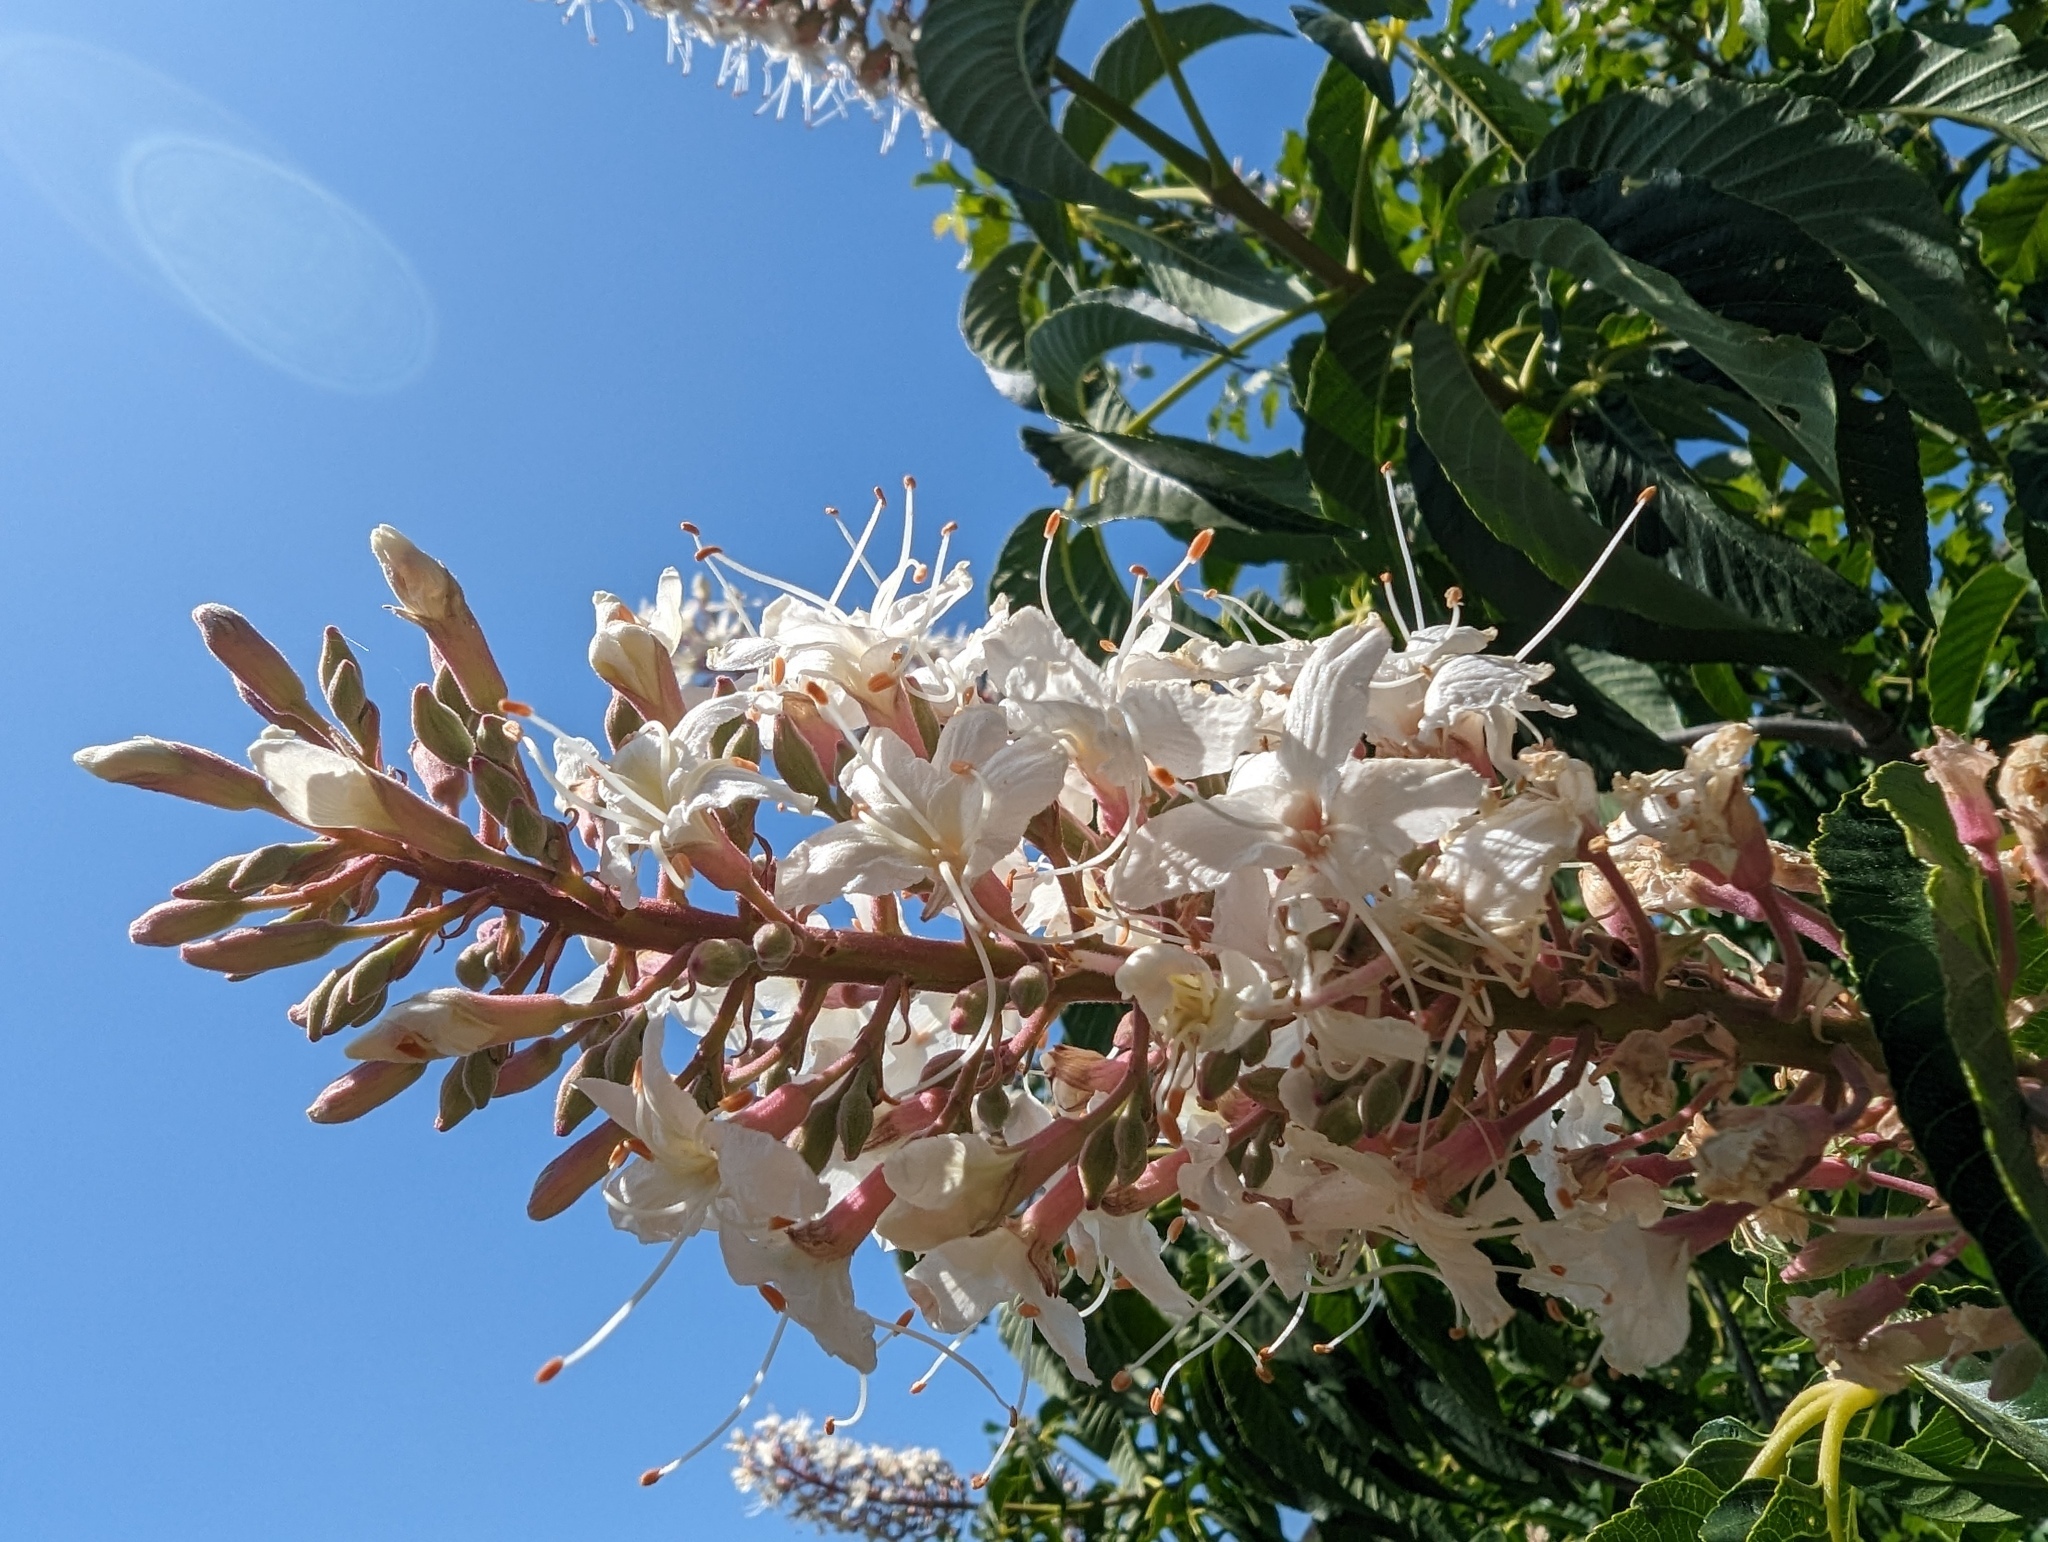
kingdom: Plantae
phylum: Tracheophyta
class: Magnoliopsida
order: Sapindales
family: Sapindaceae
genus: Aesculus
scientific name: Aesculus californica
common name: California buckeye
